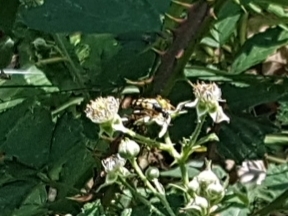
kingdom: Animalia
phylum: Arthropoda
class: Insecta
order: Coleoptera
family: Cerambycidae
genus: Rutpela
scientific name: Rutpela maculata
